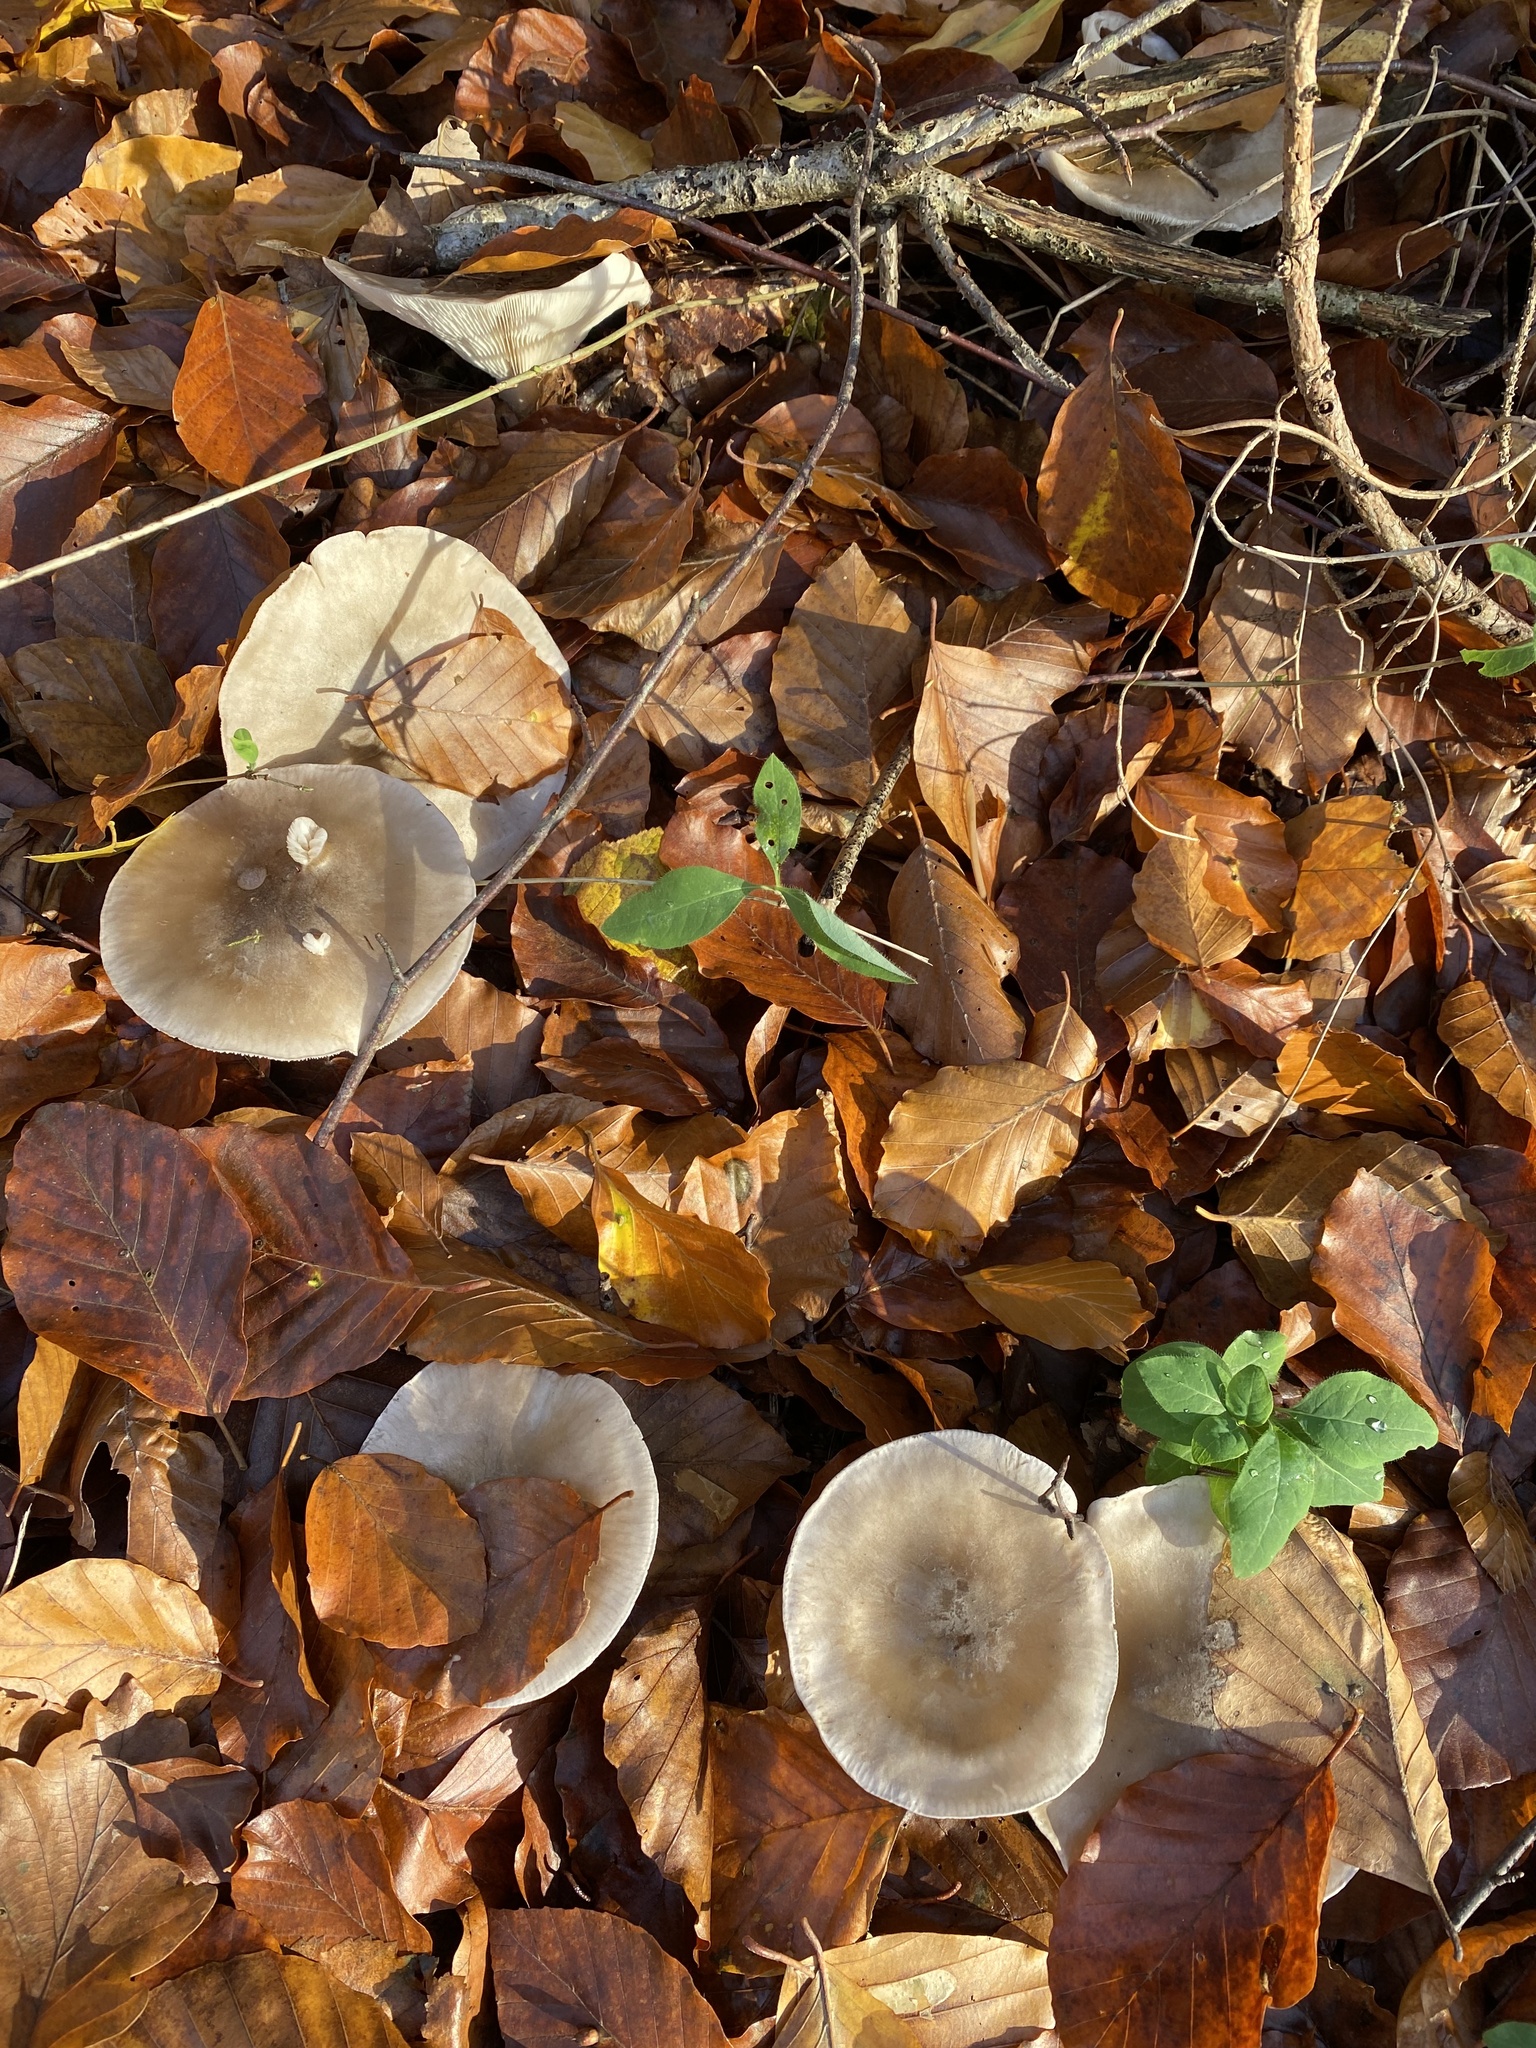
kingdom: Fungi
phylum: Basidiomycota
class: Agaricomycetes
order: Agaricales
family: Tricholomataceae
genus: Clitocybe
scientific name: Clitocybe nebularis
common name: Clouded agaric
